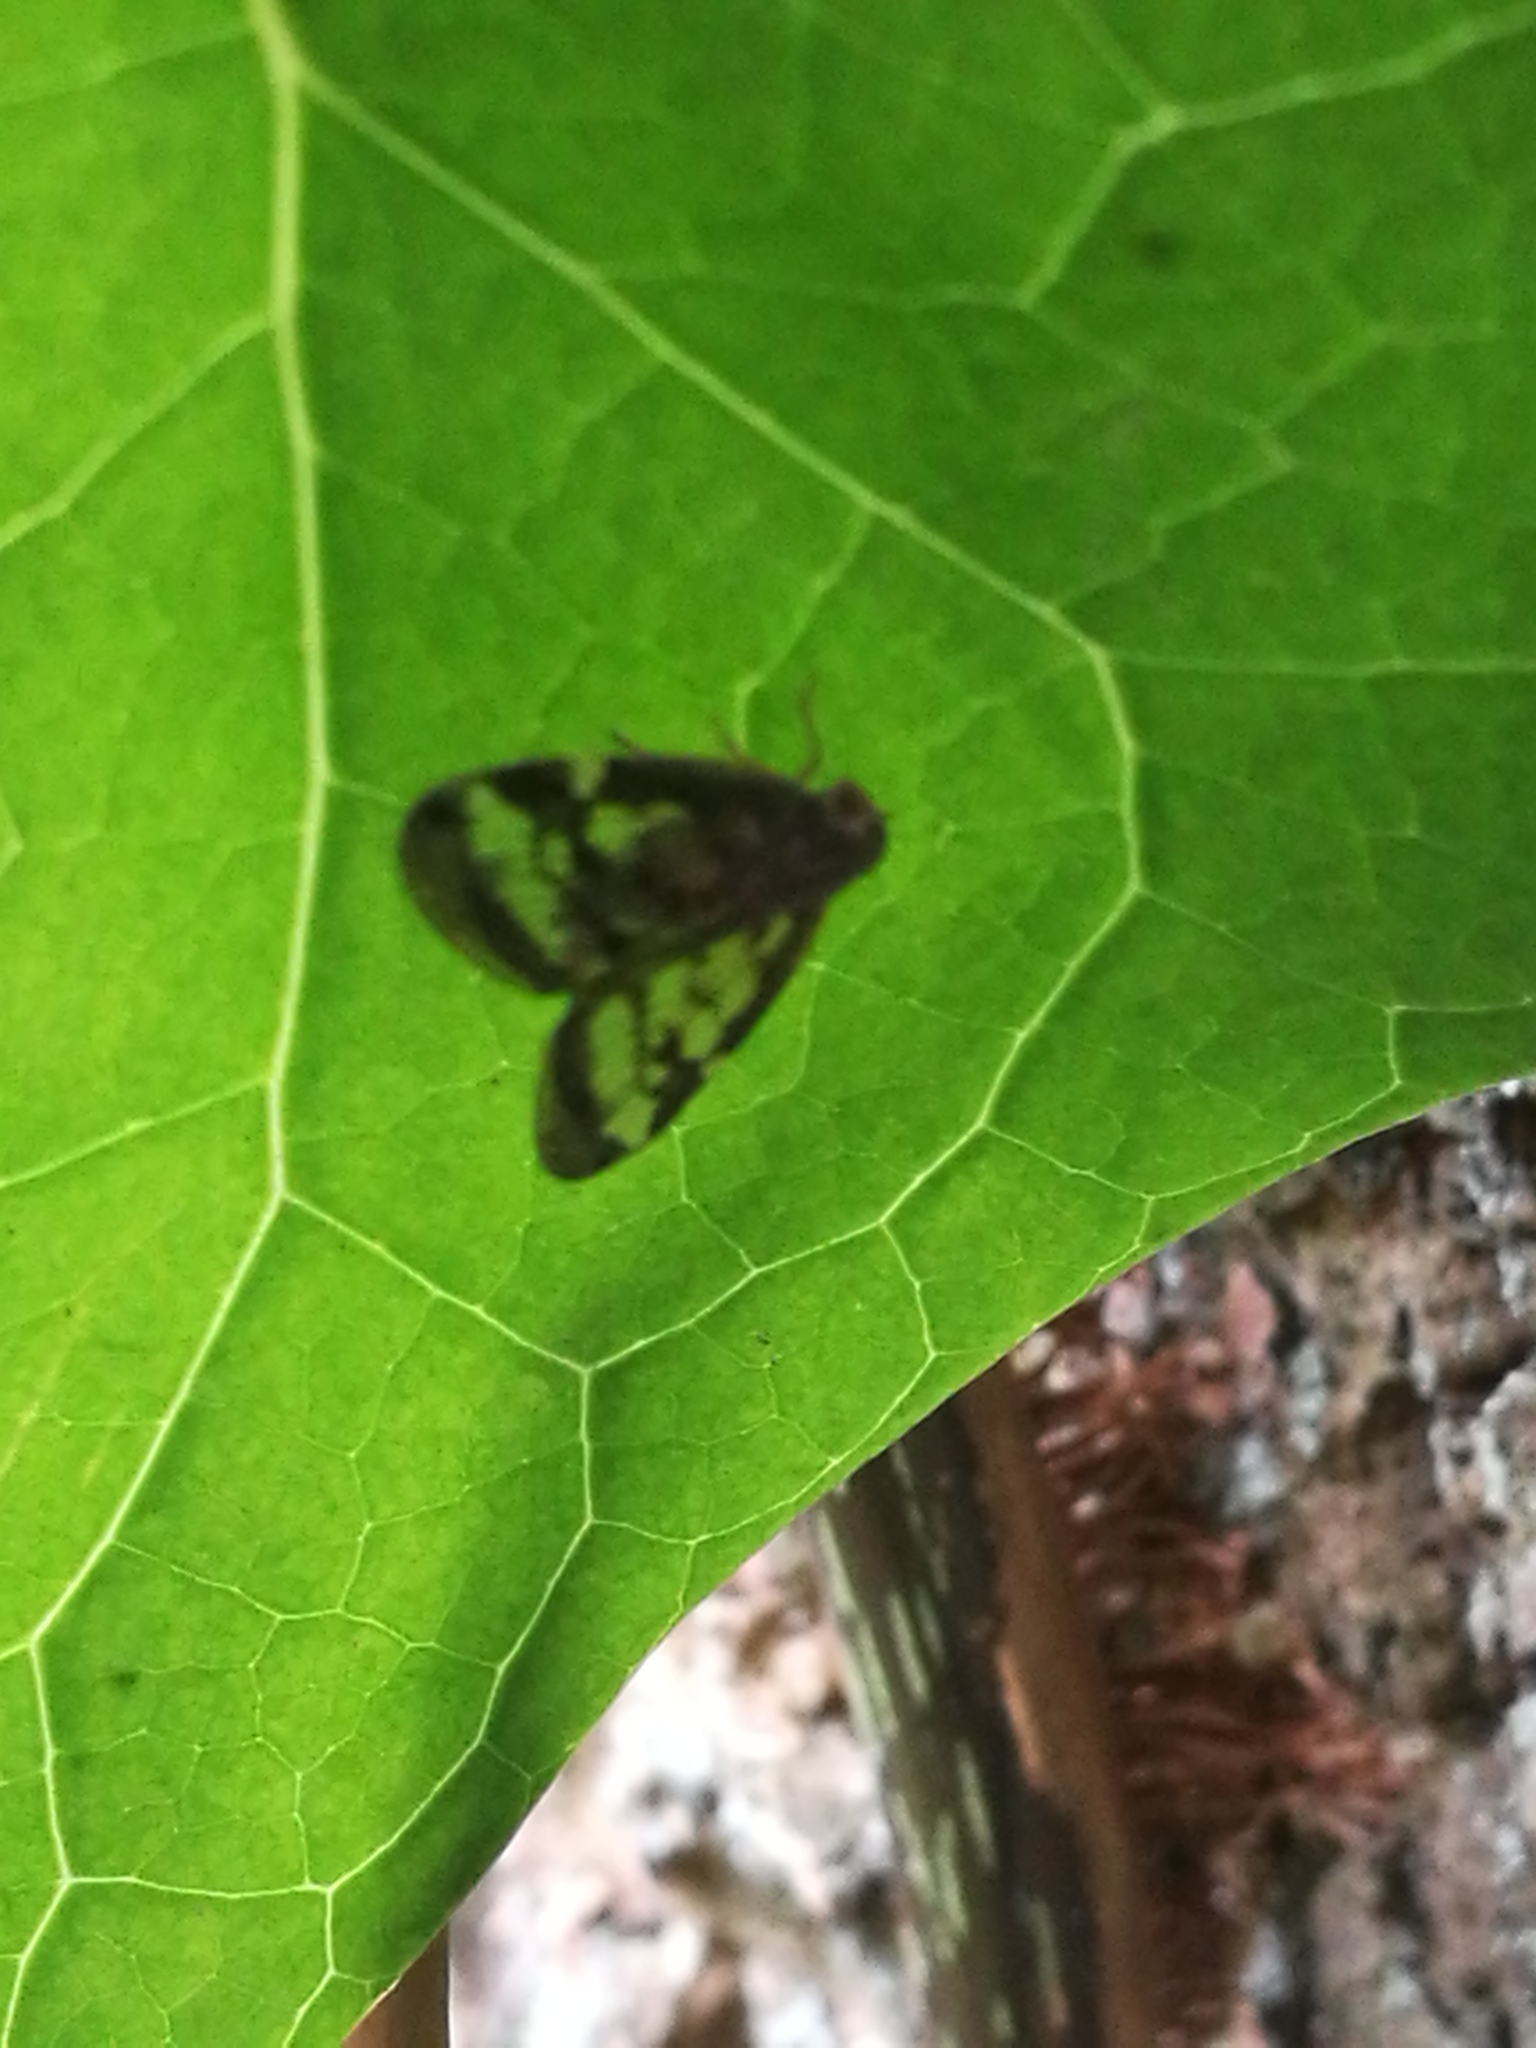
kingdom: Animalia
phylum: Arthropoda
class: Insecta
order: Hemiptera
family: Ricaniidae
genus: Scolypopa
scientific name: Scolypopa australis
